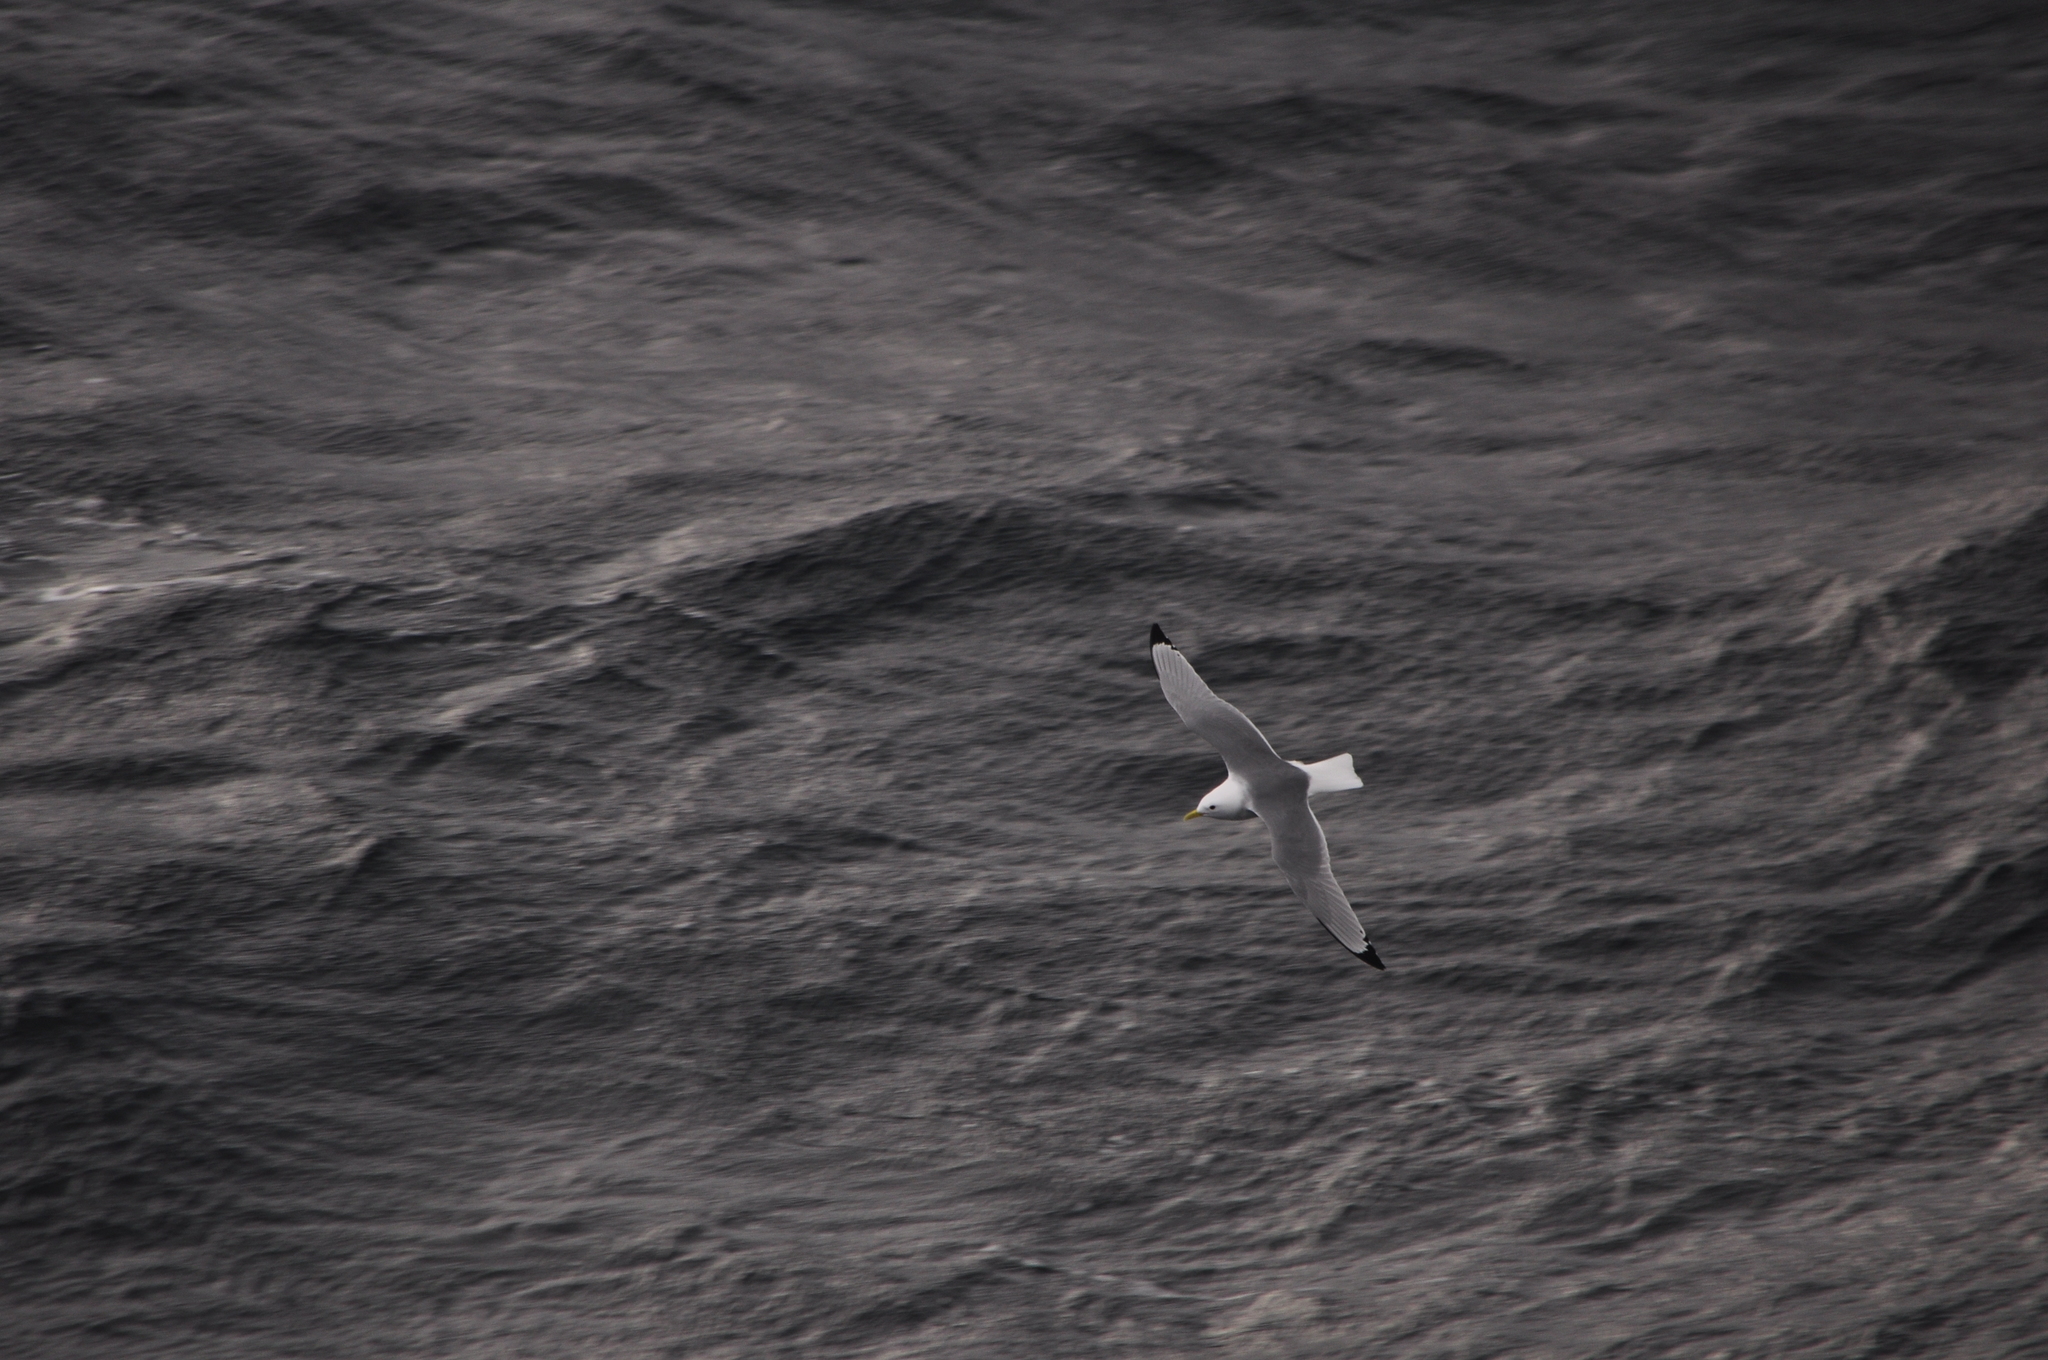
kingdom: Animalia
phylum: Chordata
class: Aves
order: Charadriiformes
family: Laridae
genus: Rissa
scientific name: Rissa tridactyla
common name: Black-legged kittiwake
